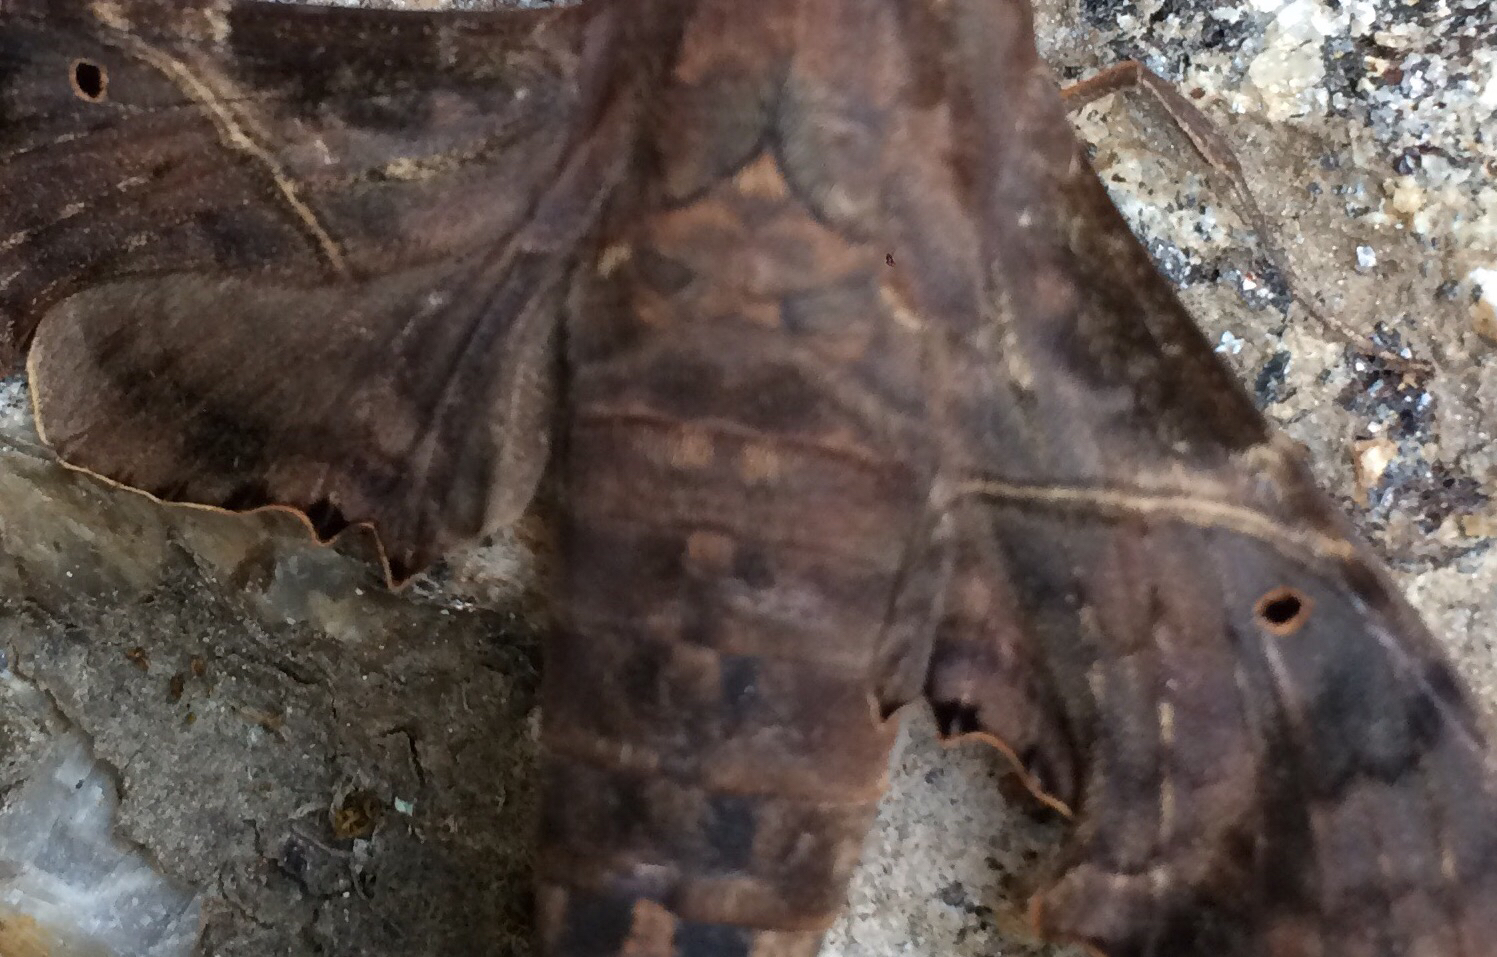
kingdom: Animalia
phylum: Arthropoda
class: Insecta
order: Lepidoptera
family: Sphingidae
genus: Enyo
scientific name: Enyo lugubris
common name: Mournful sphinx
